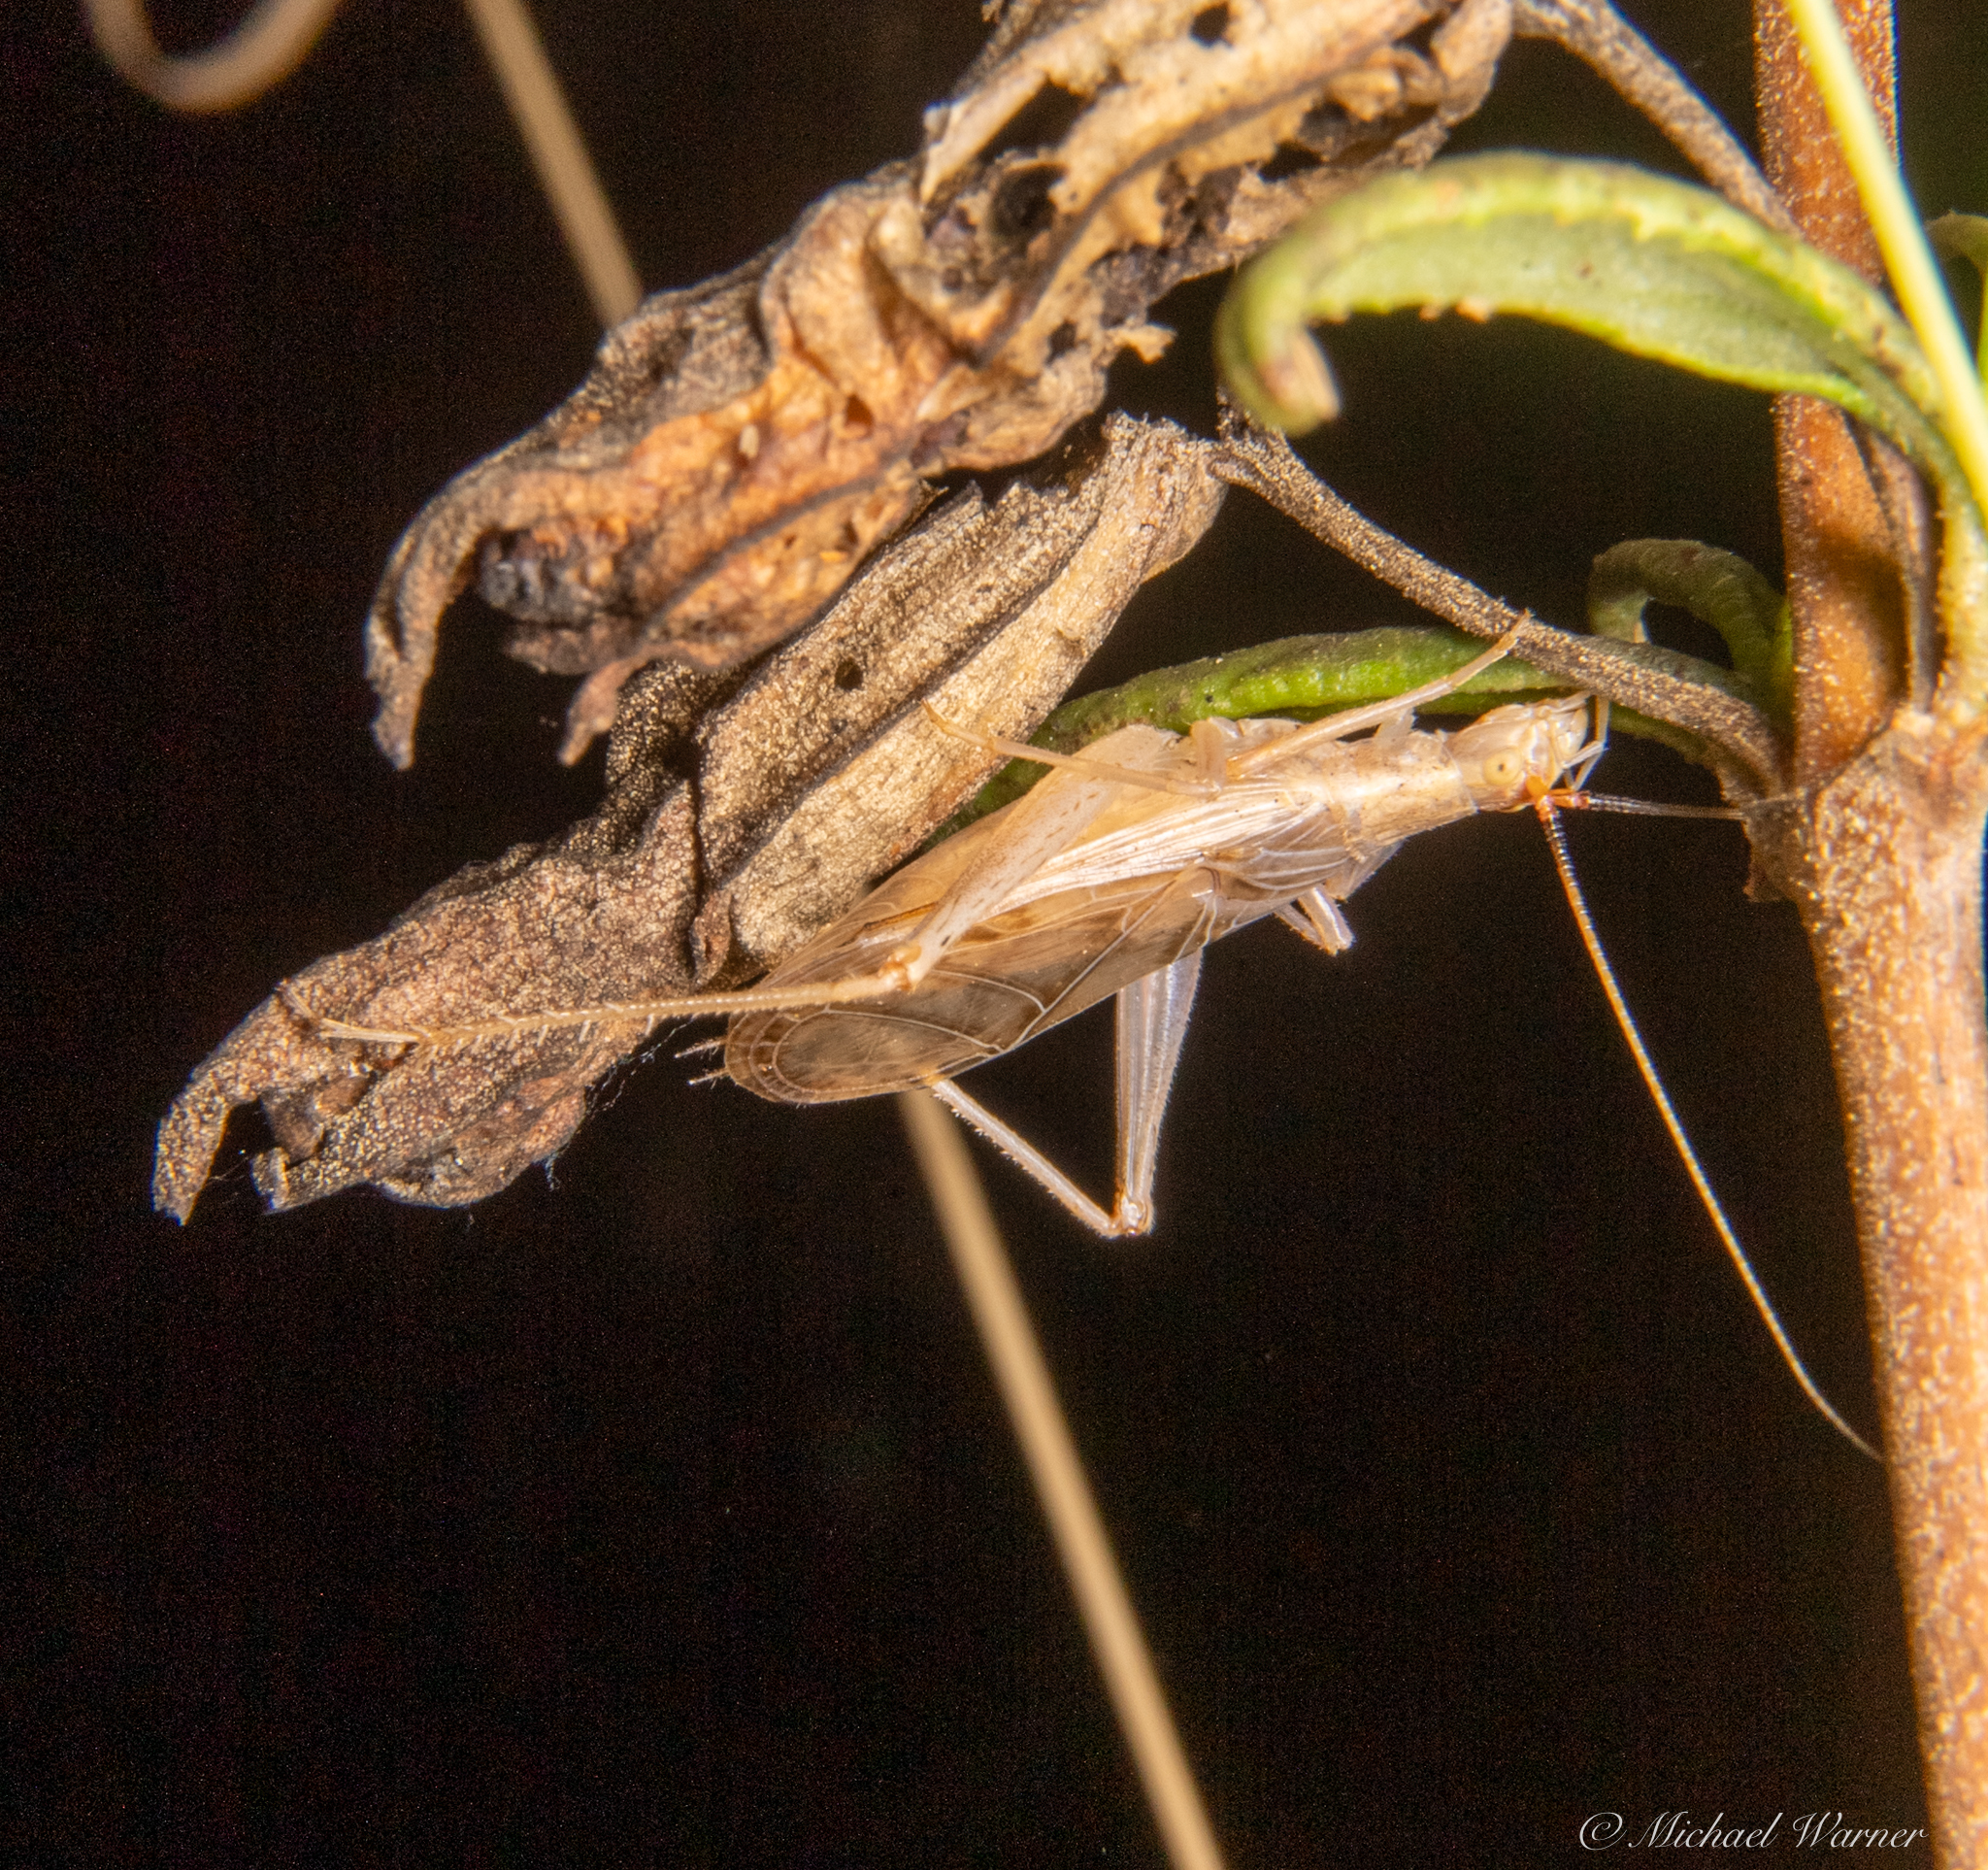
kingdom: Animalia
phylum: Arthropoda
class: Insecta
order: Orthoptera
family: Gryllidae
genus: Oecanthus
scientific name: Oecanthus californicus
